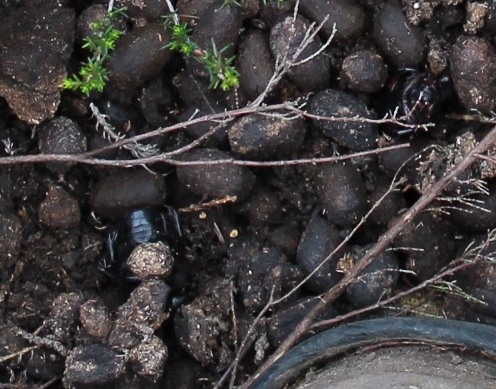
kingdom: Animalia
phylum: Arthropoda
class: Insecta
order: Coleoptera
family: Scarabaeidae
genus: Rhinocoeta
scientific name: Rhinocoeta sanguinipes
